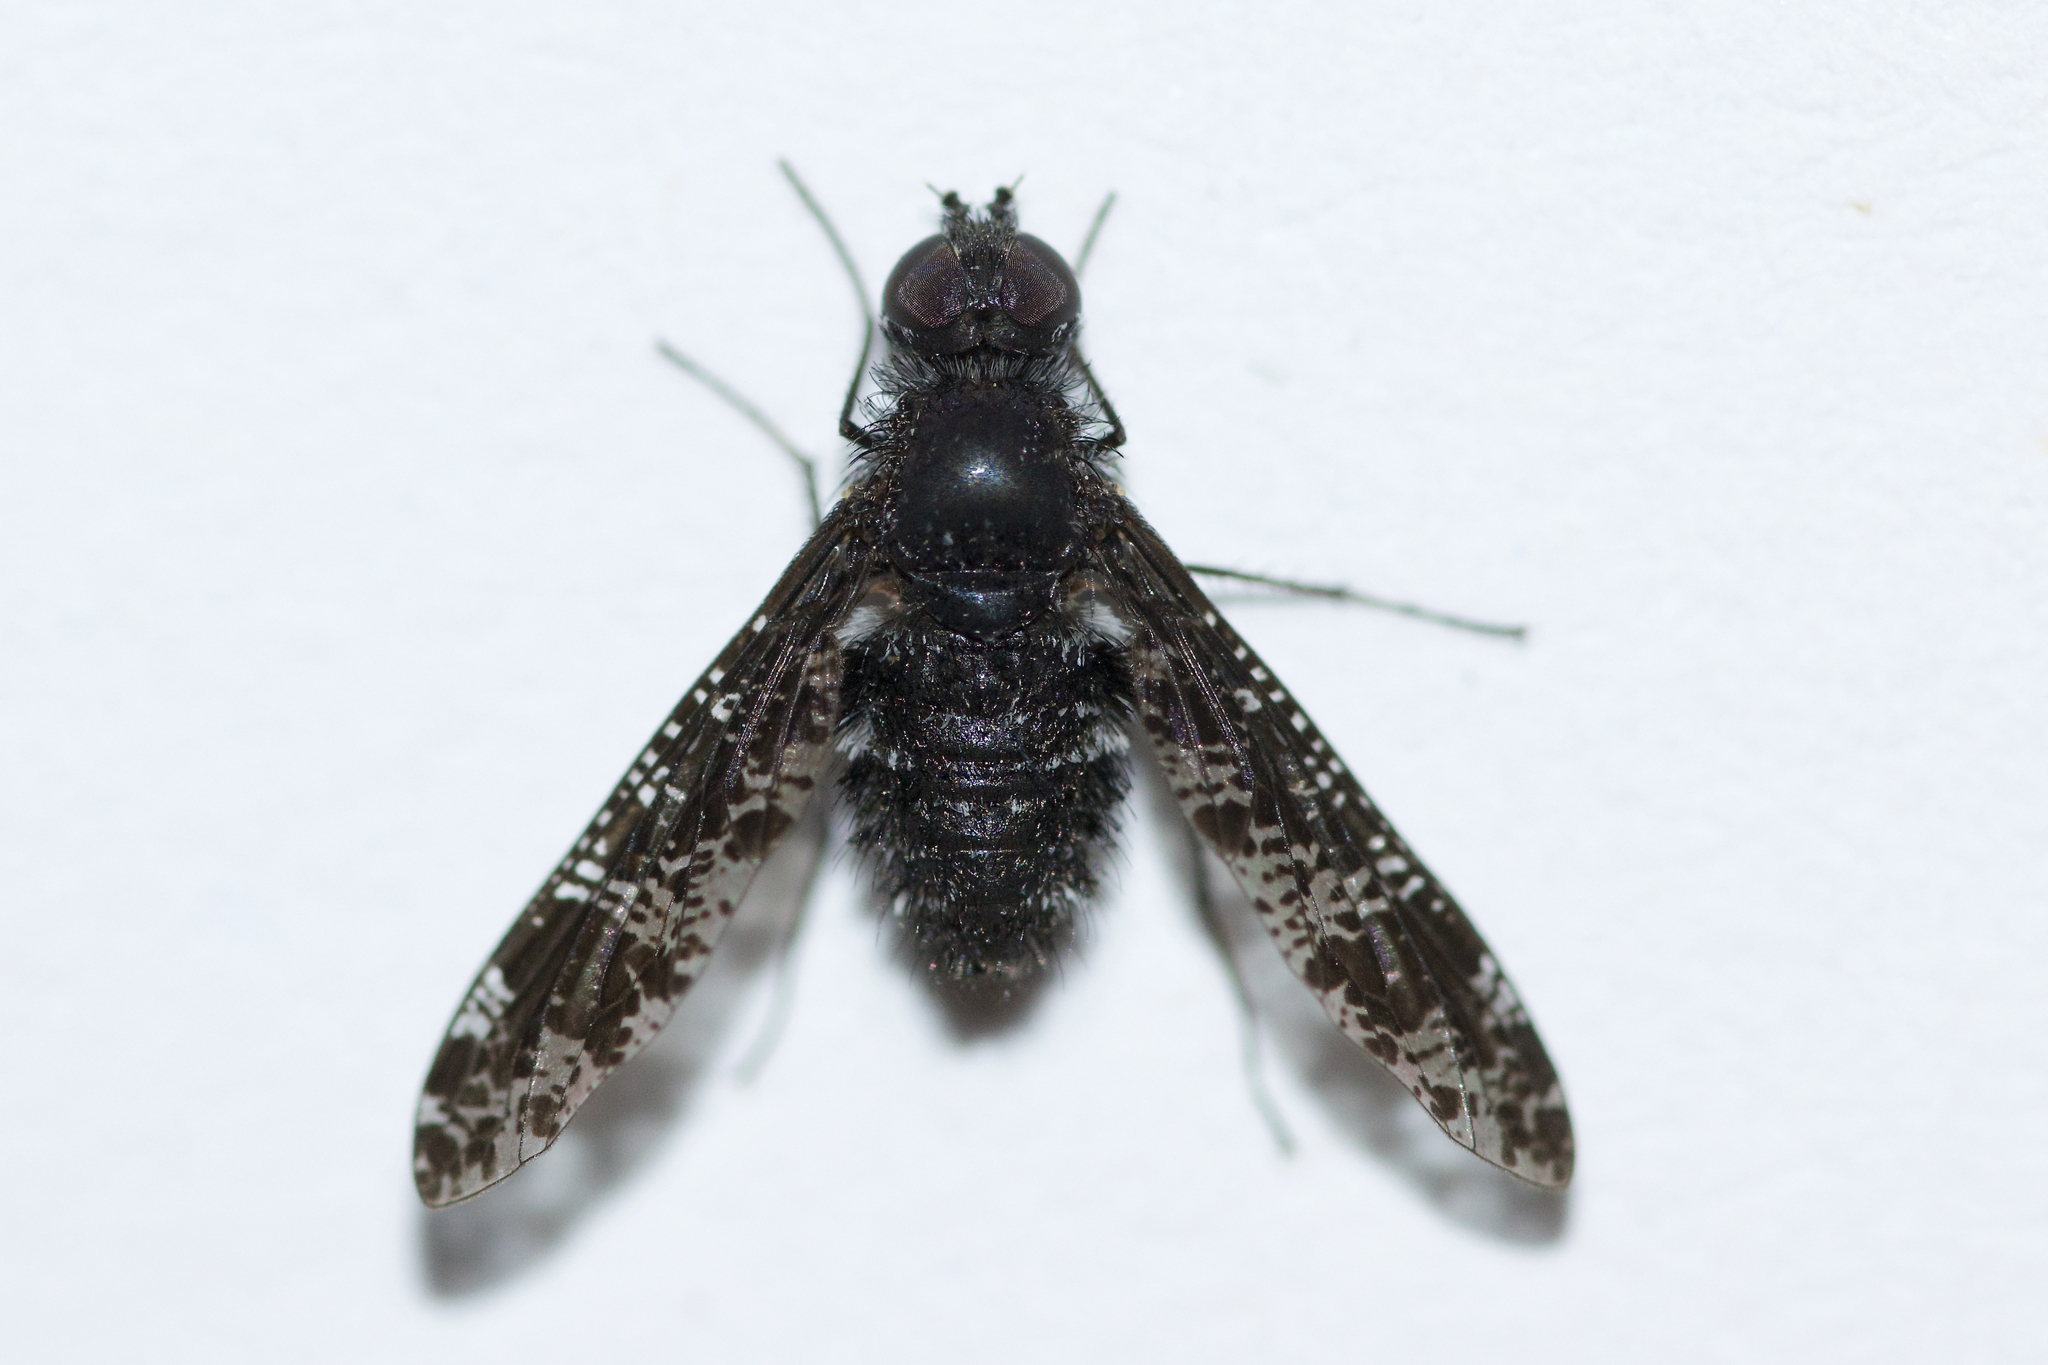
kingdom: Animalia
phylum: Arthropoda
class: Insecta
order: Diptera
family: Bombyliidae
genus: Anthrax
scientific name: Anthrax irroratus
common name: Spotted bee fly
